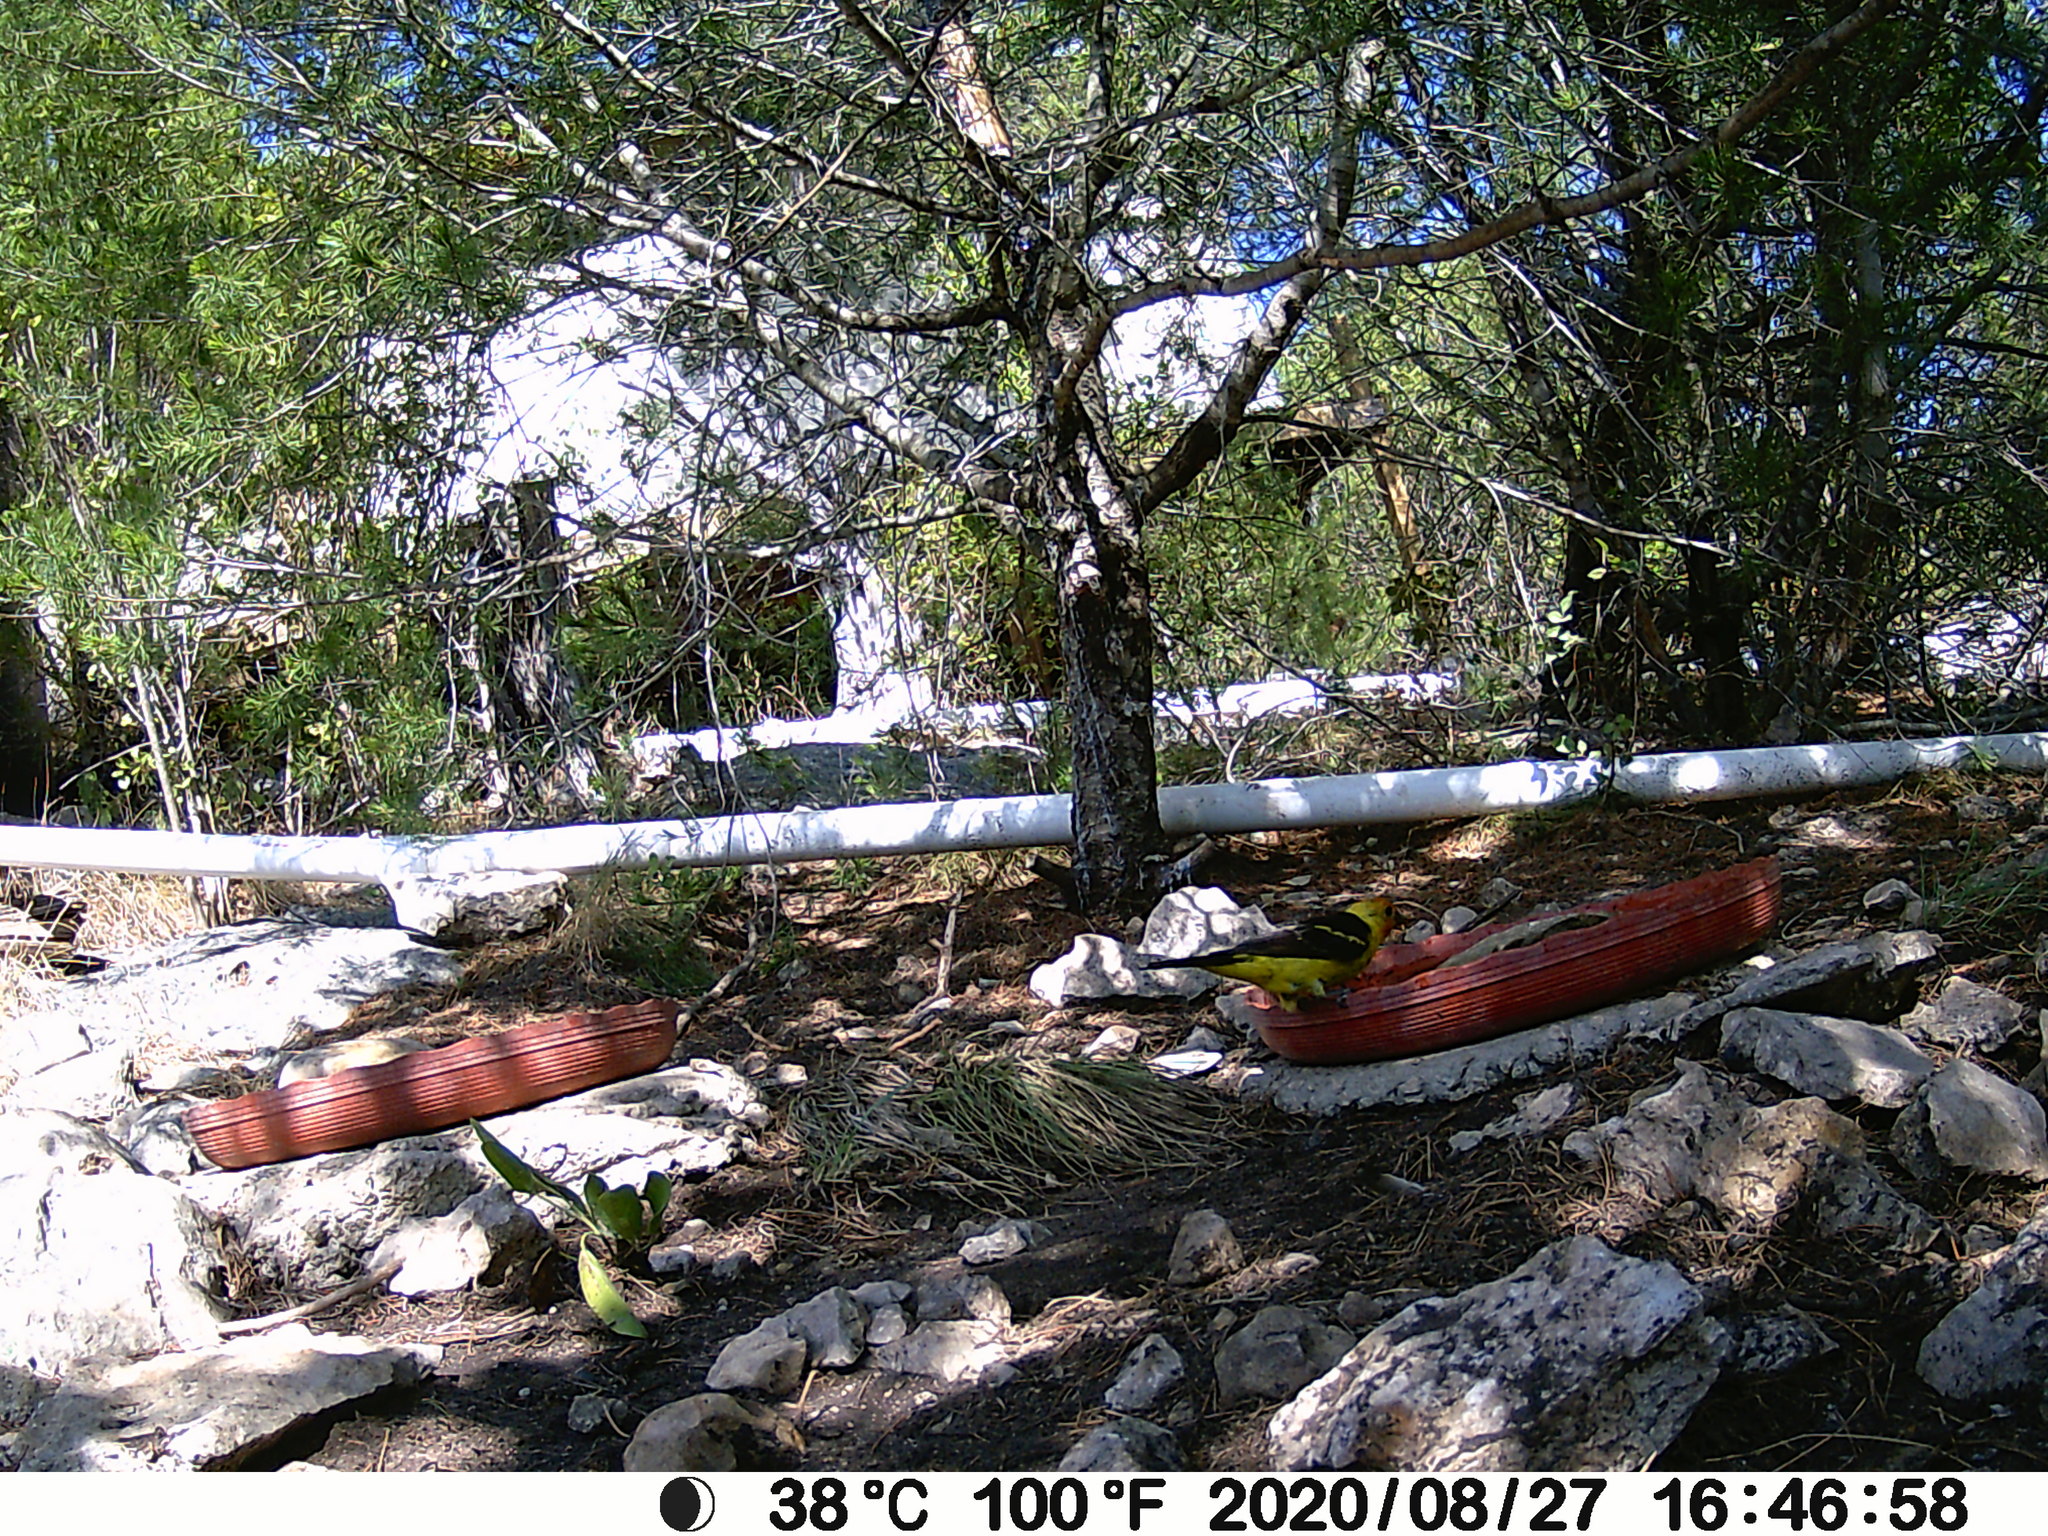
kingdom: Animalia
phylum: Chordata
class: Aves
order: Passeriformes
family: Cardinalidae
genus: Piranga
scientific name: Piranga ludoviciana
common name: Western tanager
